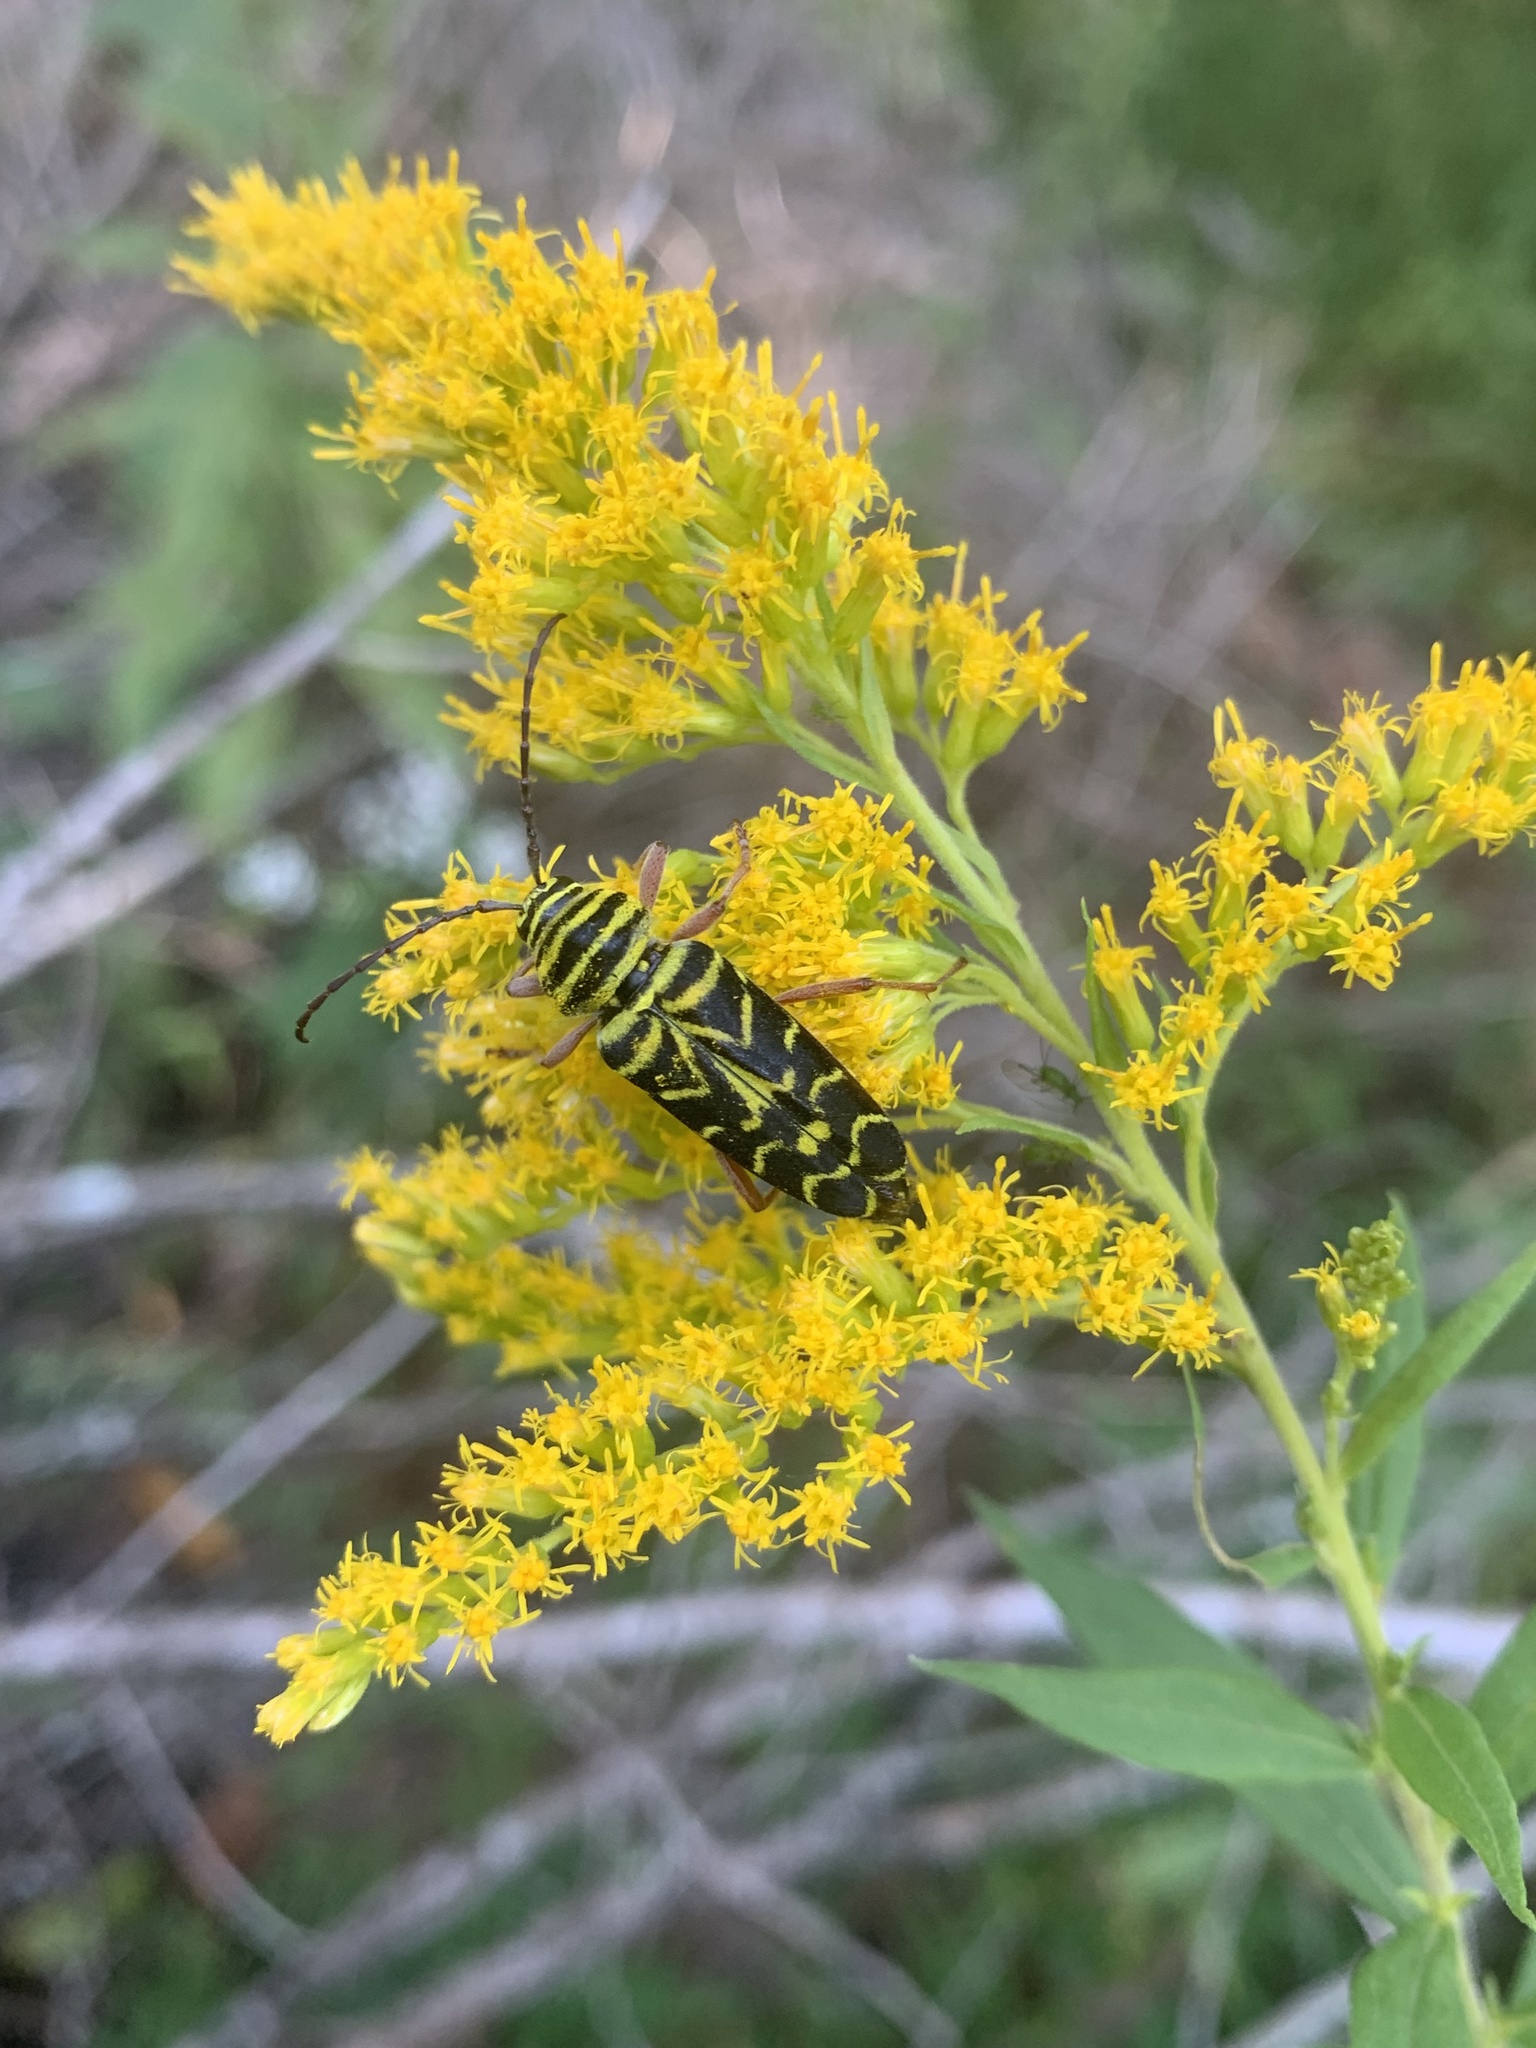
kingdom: Animalia
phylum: Arthropoda
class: Insecta
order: Coleoptera
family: Cerambycidae
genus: Megacyllene
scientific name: Megacyllene robiniae
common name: Locust borer
